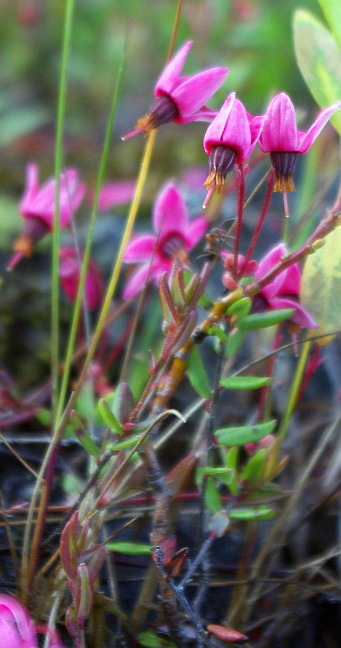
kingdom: Plantae
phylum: Tracheophyta
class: Magnoliopsida
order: Ericales
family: Ericaceae
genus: Vaccinium
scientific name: Vaccinium oxycoccos
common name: Cranberry
